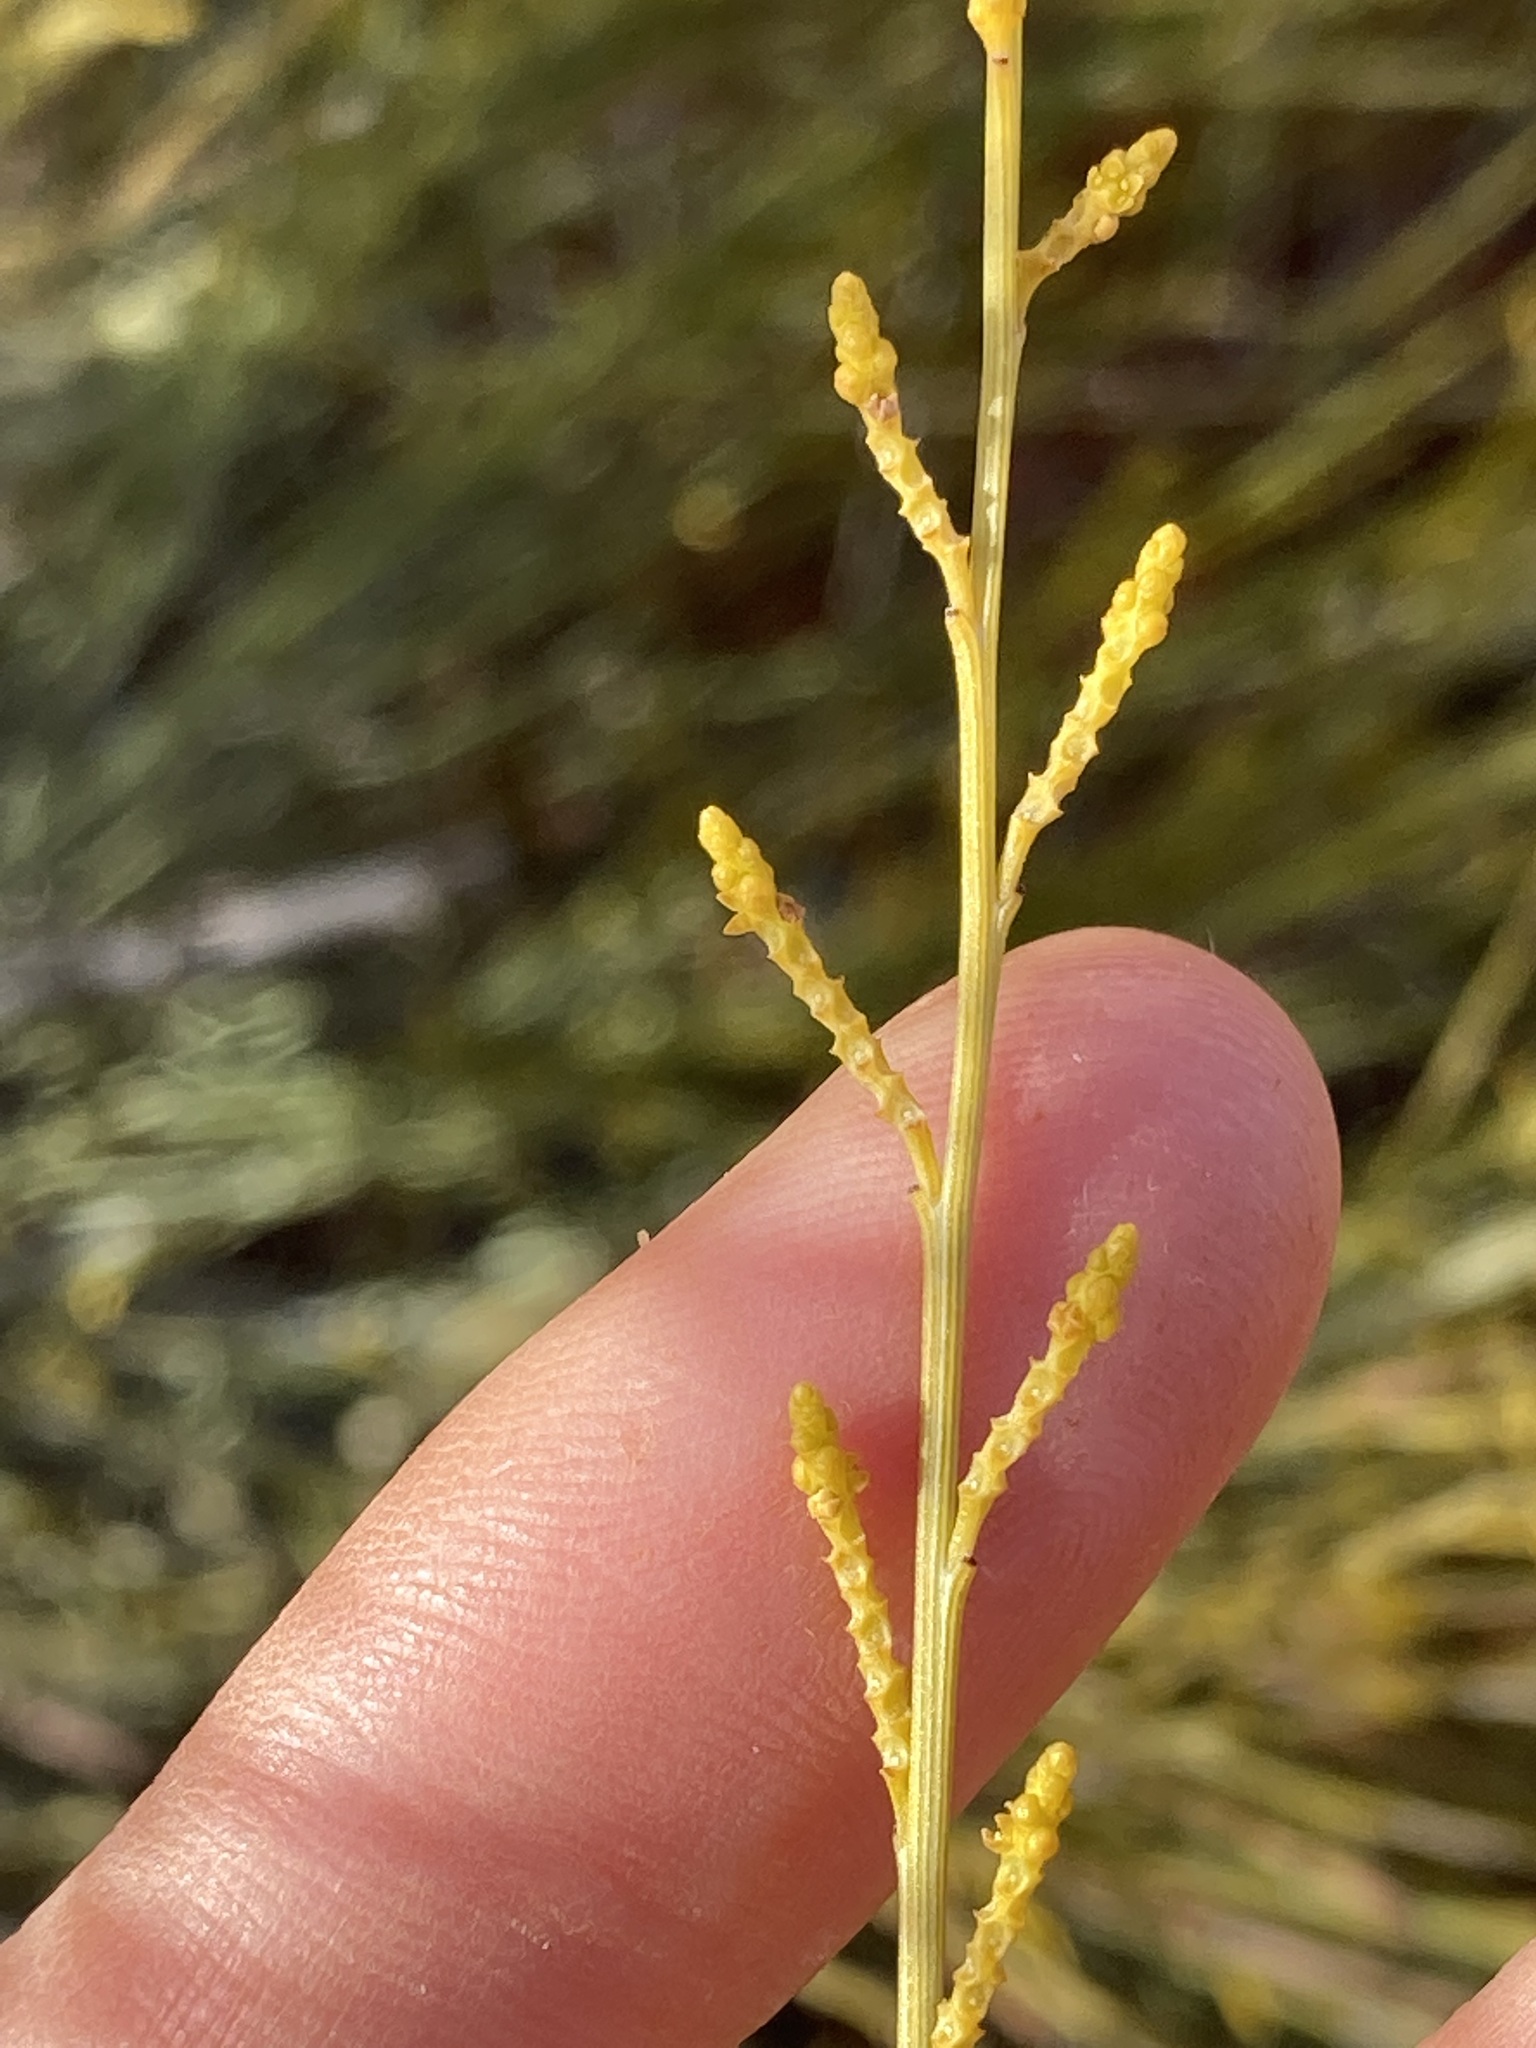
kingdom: Plantae
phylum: Tracheophyta
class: Magnoliopsida
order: Santalales
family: Santalaceae
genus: Exocarpos
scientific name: Exocarpos sparteus
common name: Broom ballart
